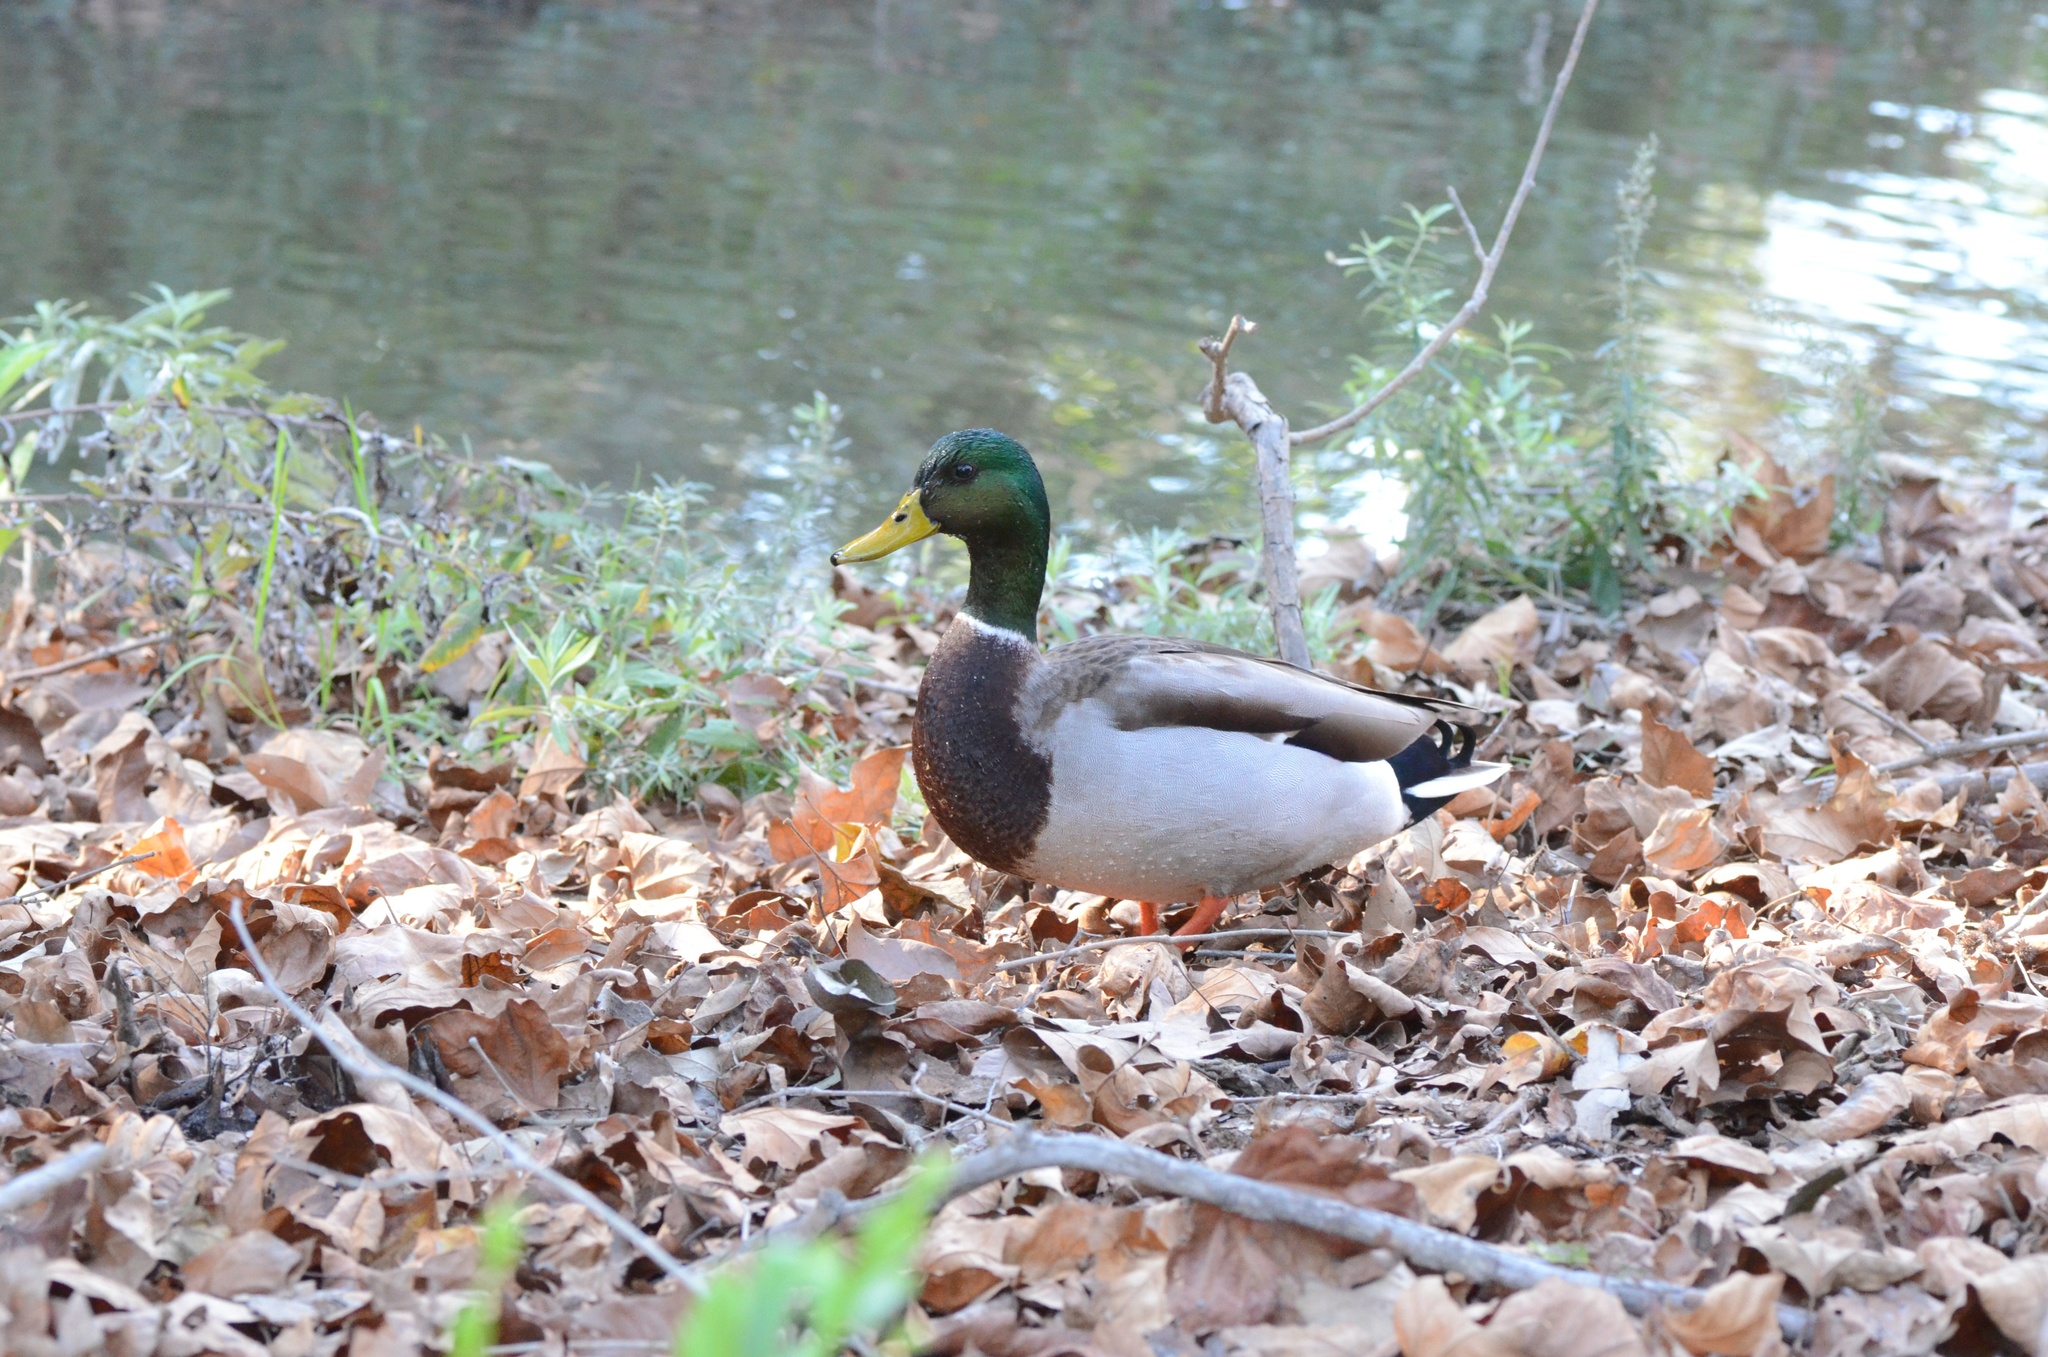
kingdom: Animalia
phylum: Chordata
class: Aves
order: Anseriformes
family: Anatidae
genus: Anas
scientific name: Anas platyrhynchos
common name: Mallard
